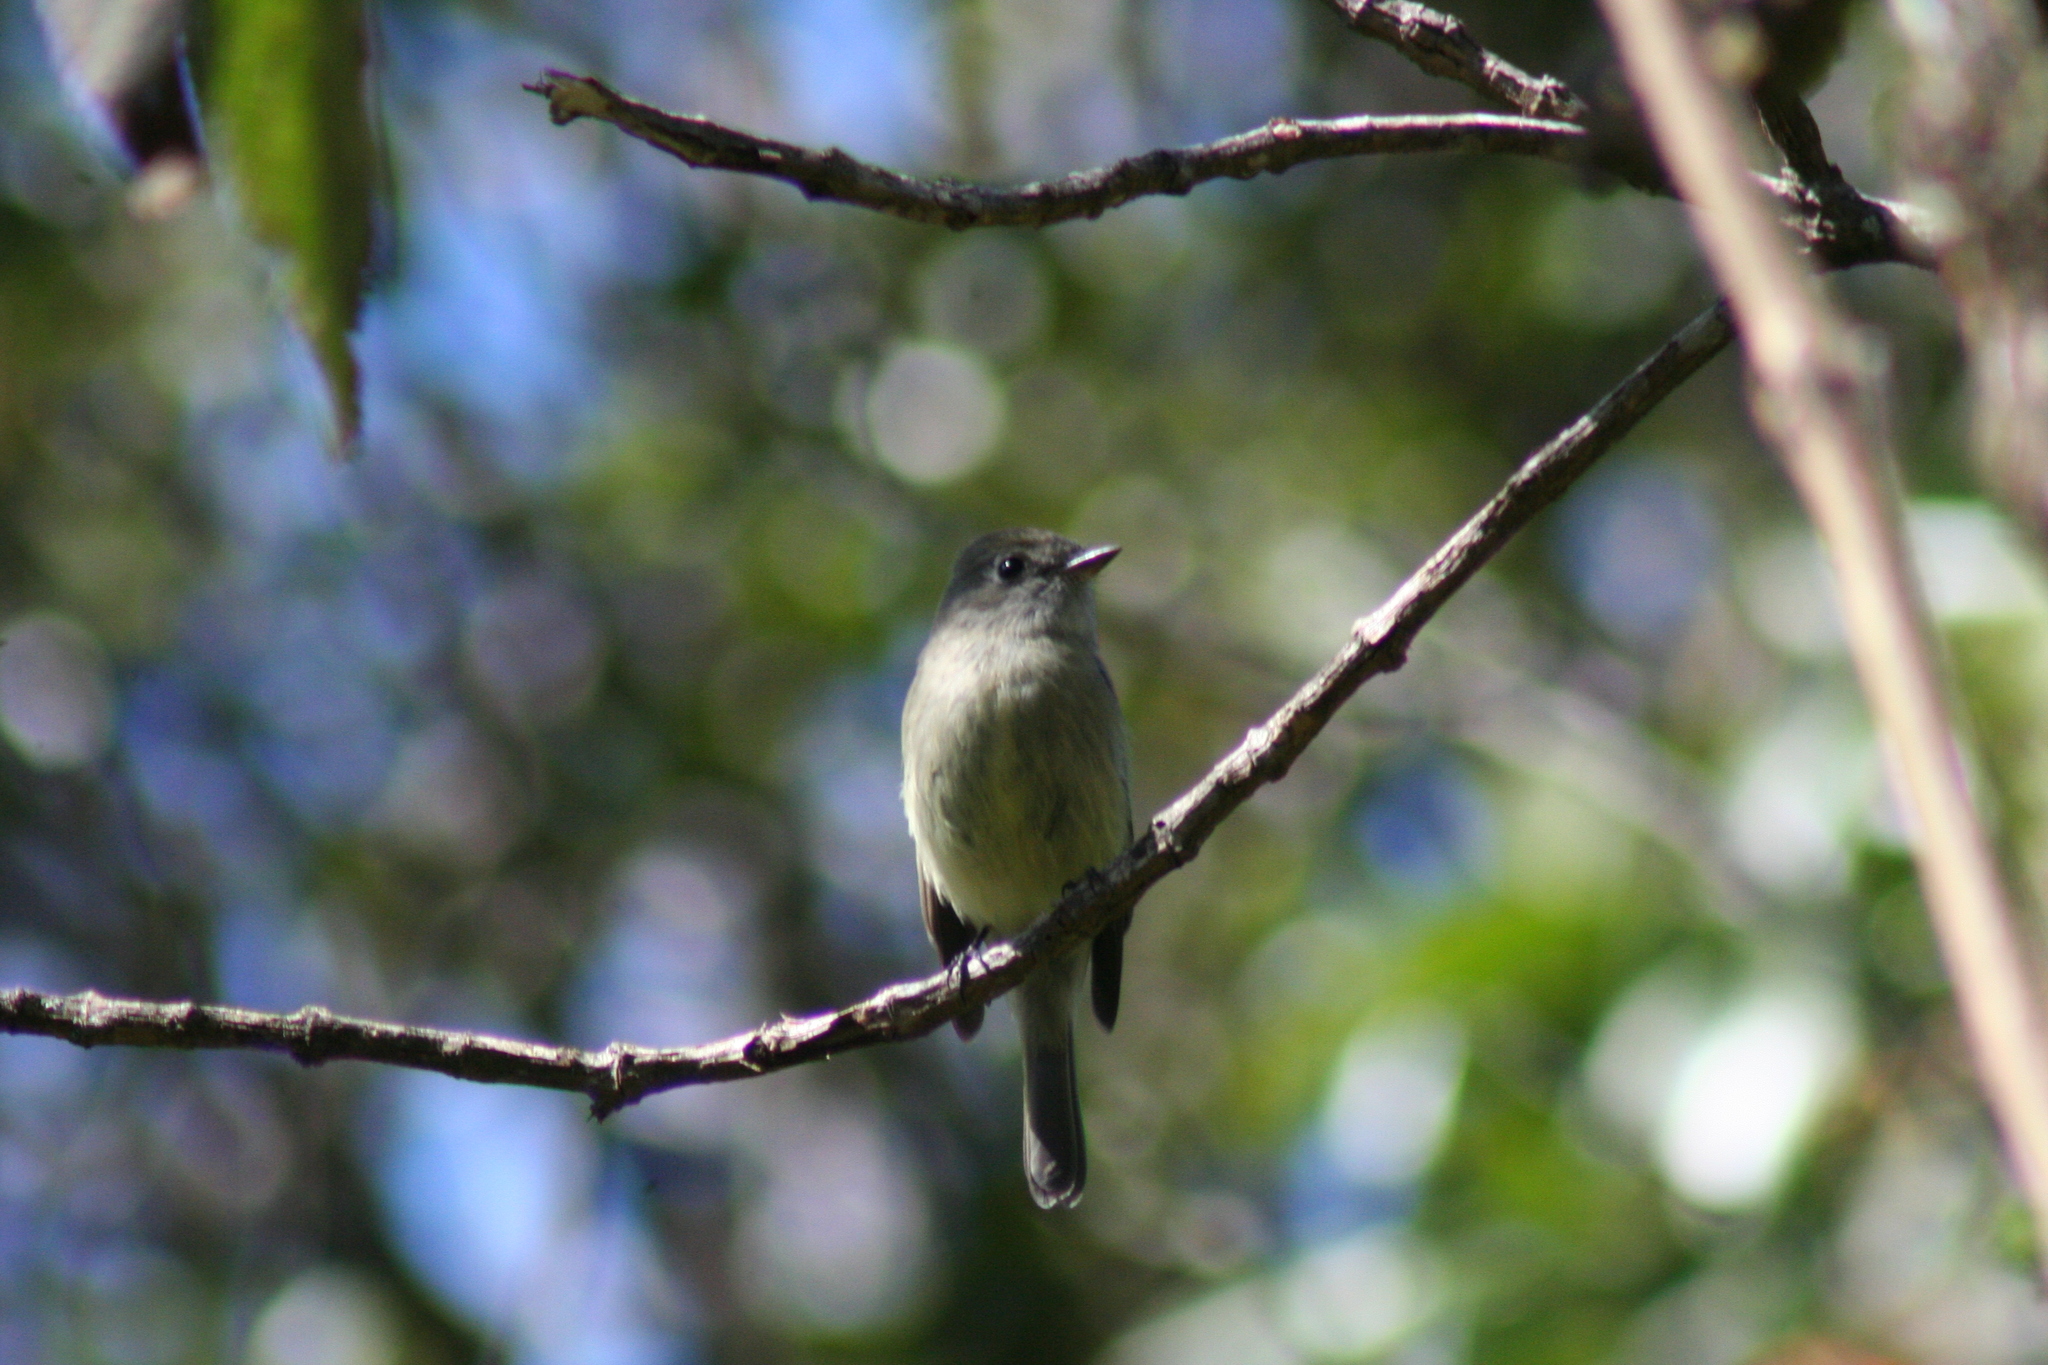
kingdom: Animalia
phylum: Chordata
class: Aves
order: Passeriformes
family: Tyrannidae
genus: Empidonax
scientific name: Empidonax hammondii
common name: Hammond's flycatcher
